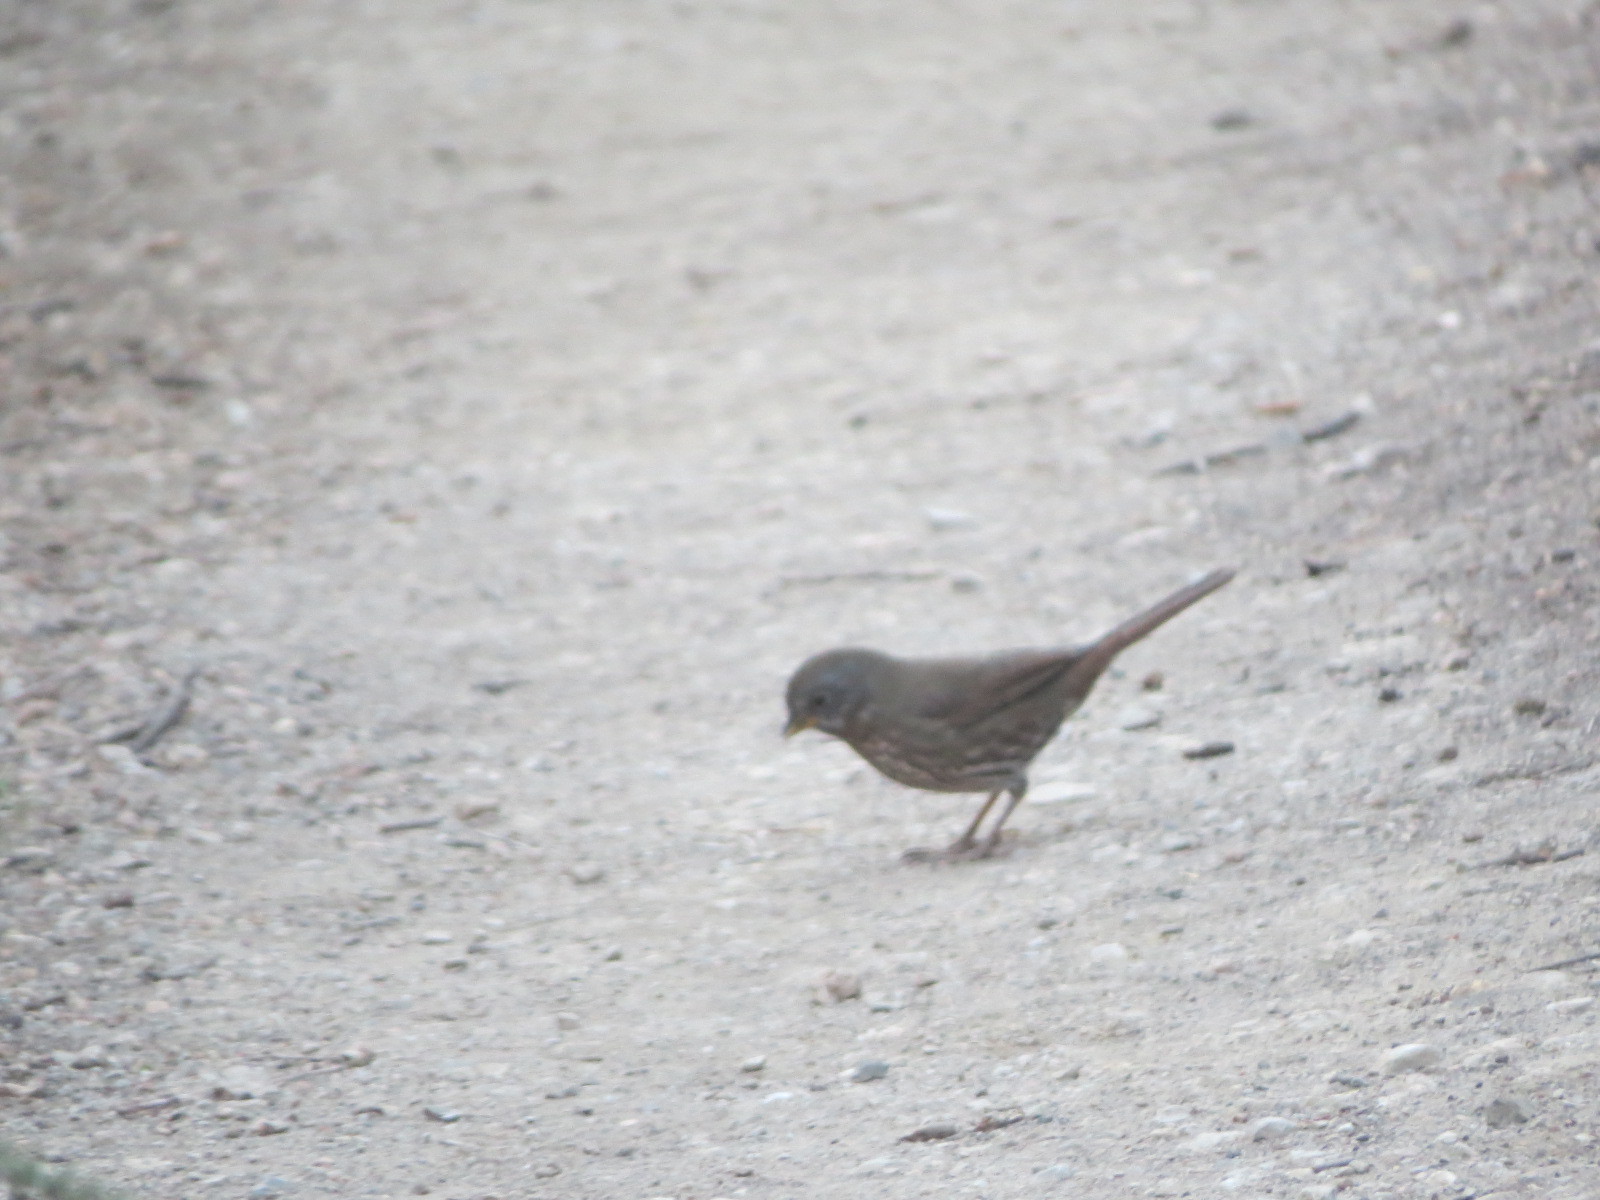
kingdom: Animalia
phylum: Chordata
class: Aves
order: Passeriformes
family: Passerellidae
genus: Passerella
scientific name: Passerella iliaca
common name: Fox sparrow
